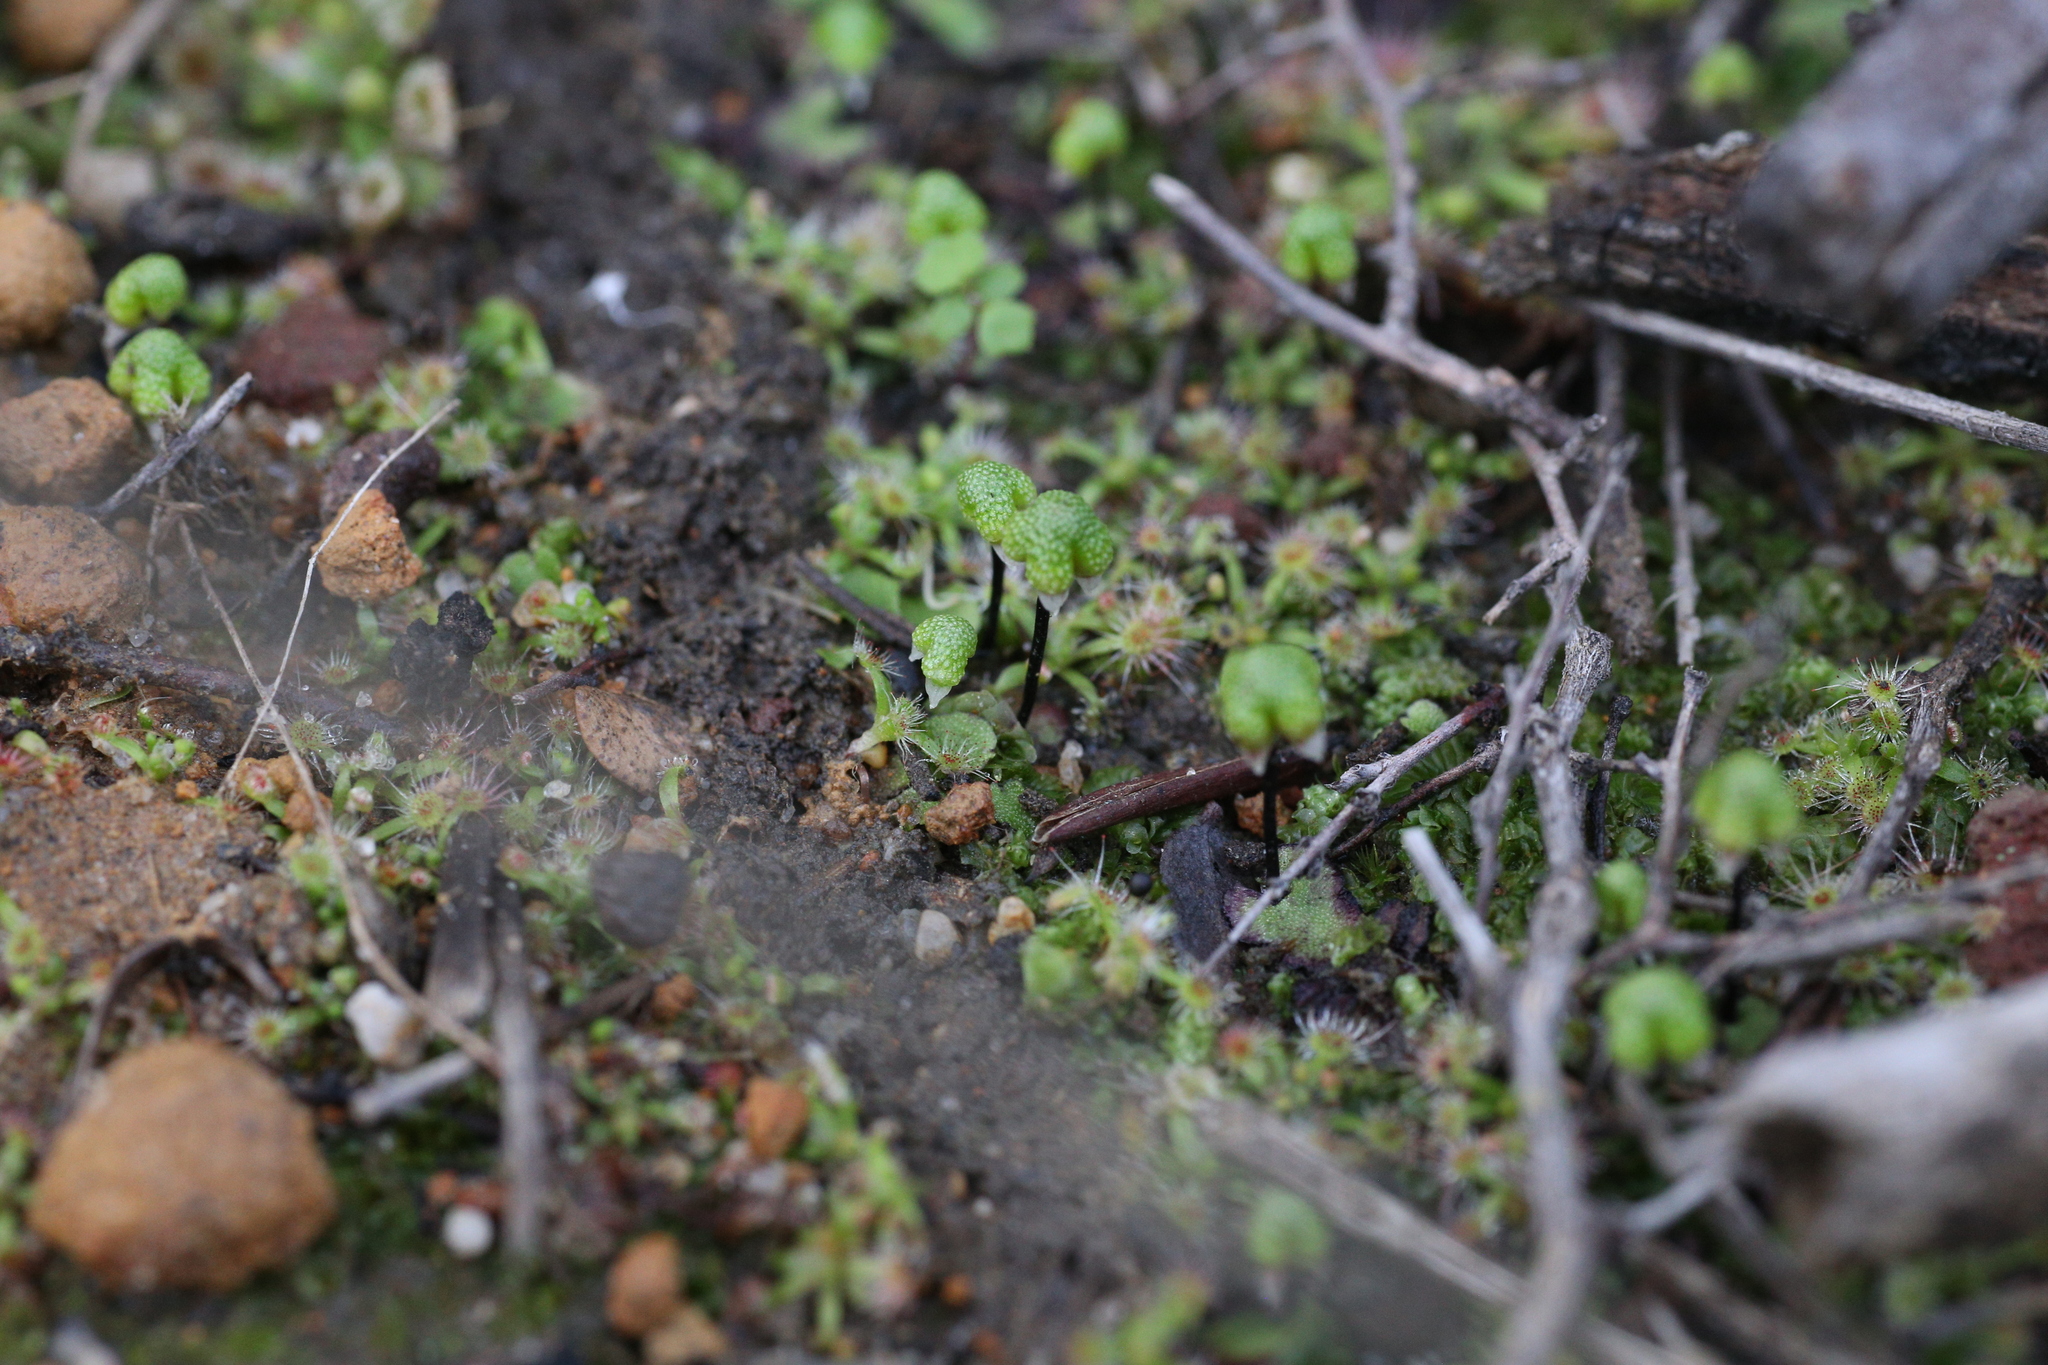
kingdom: Plantae
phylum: Marchantiophyta
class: Marchantiopsida
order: Marchantiales
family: Aytoniaceae
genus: Asterella
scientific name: Asterella drummondii
